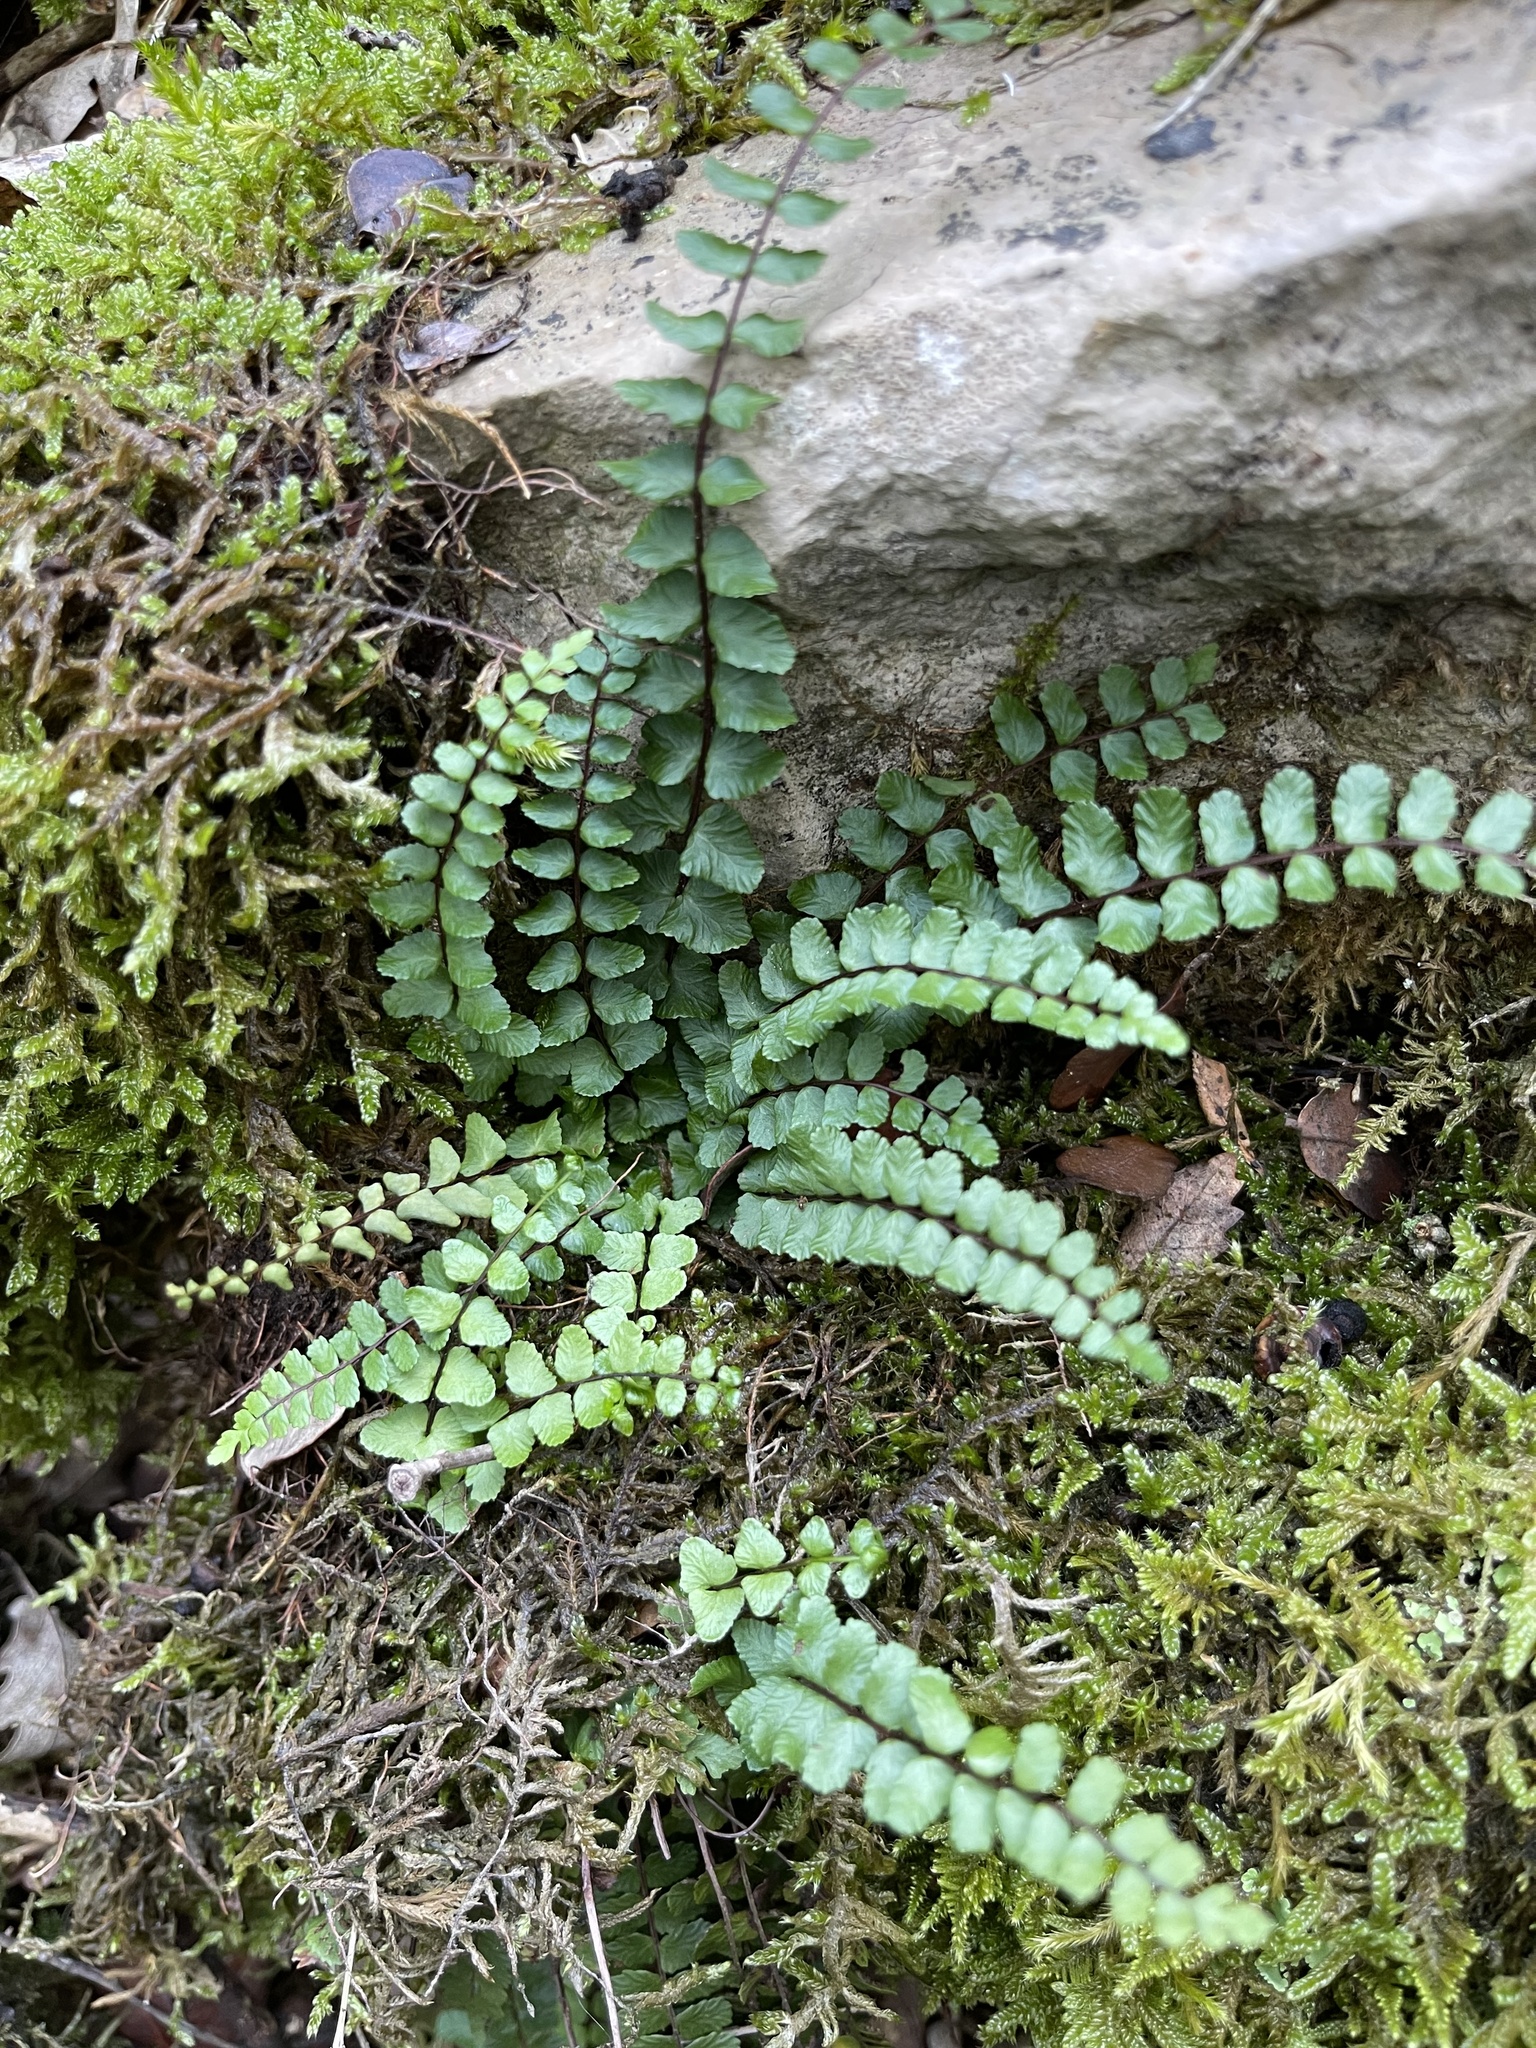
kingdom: Plantae
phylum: Tracheophyta
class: Polypodiopsida
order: Polypodiales
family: Aspleniaceae
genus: Asplenium
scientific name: Asplenium trichomanes
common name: Maidenhair spleenwort
